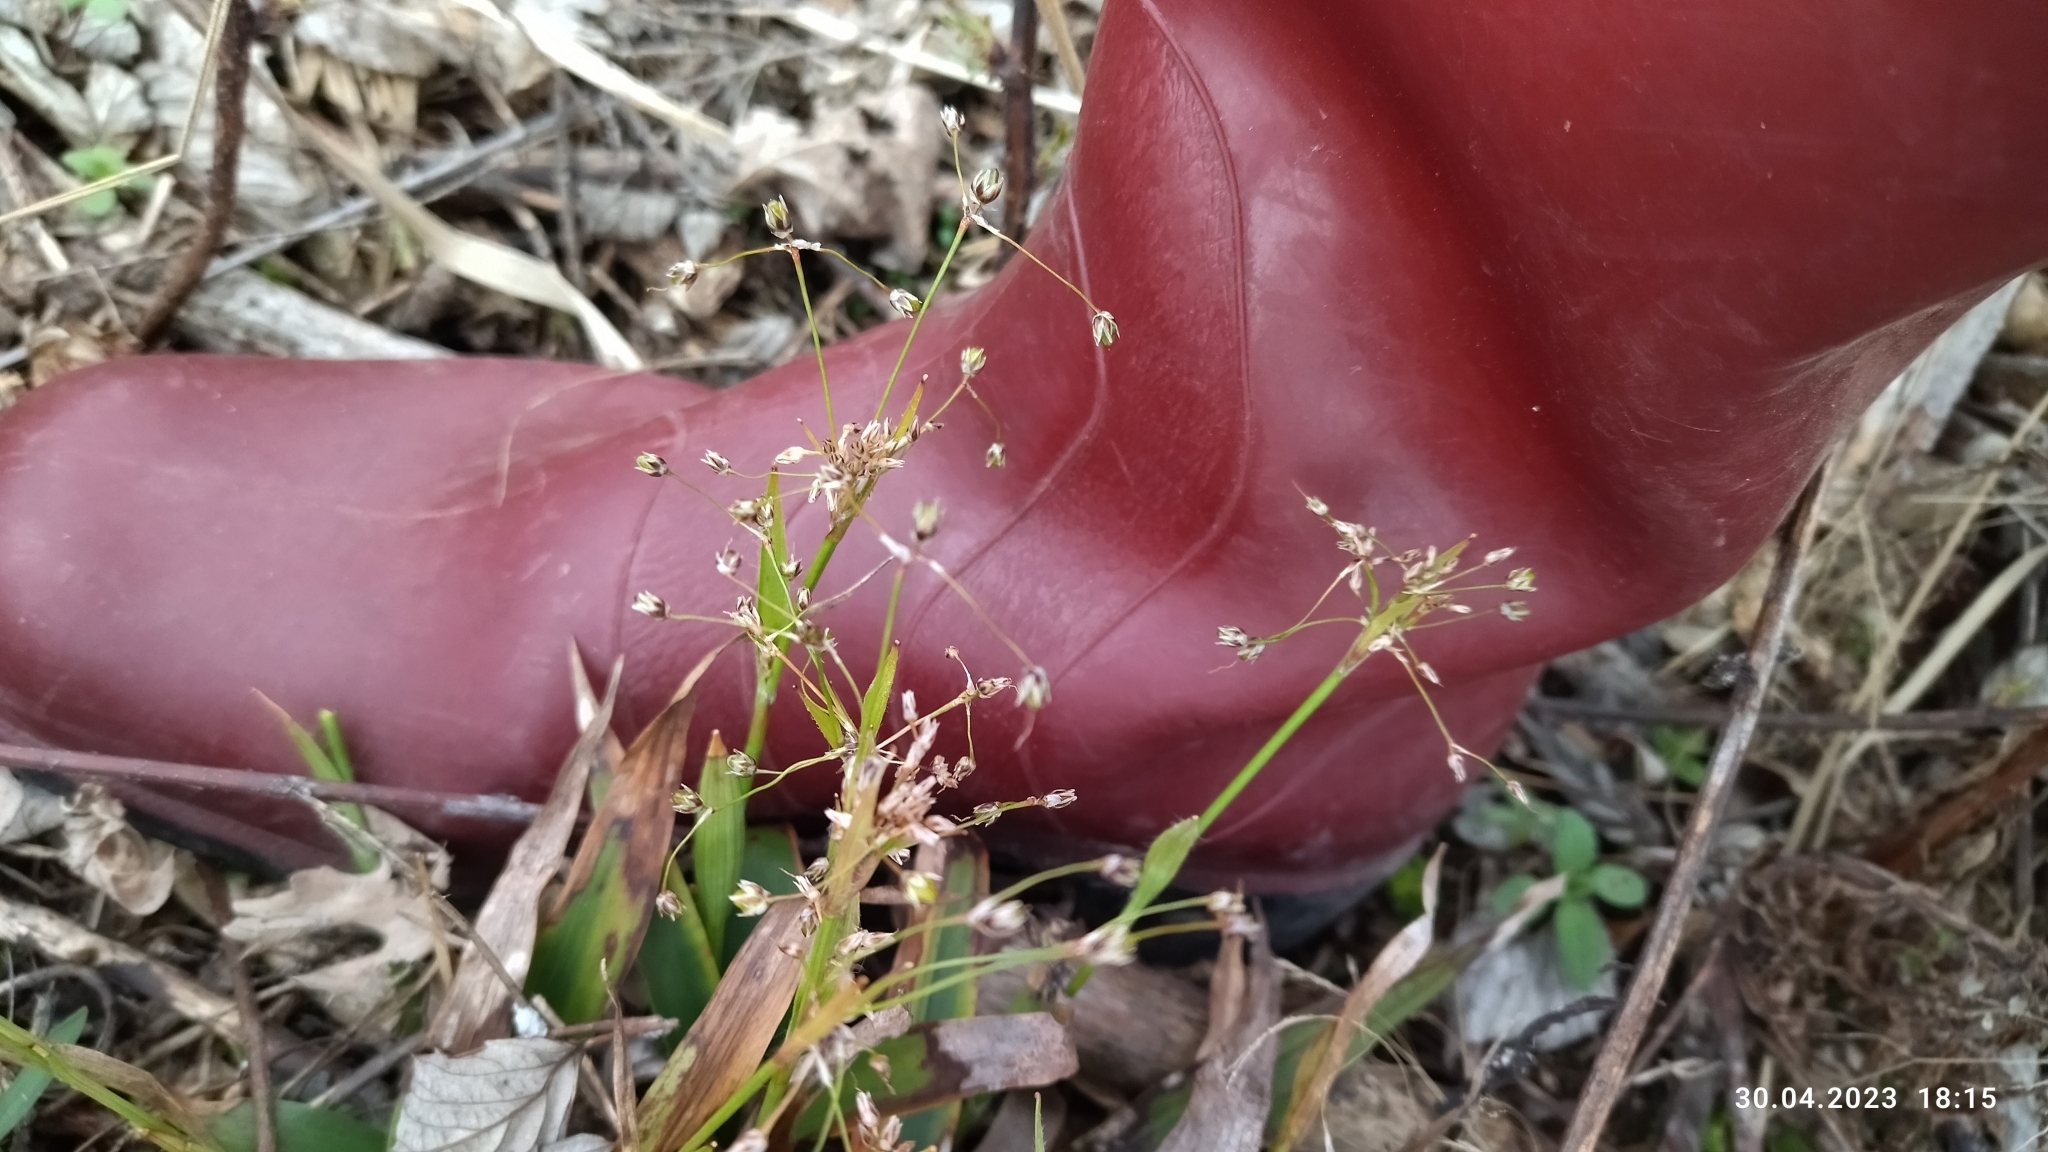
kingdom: Plantae
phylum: Tracheophyta
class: Liliopsida
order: Poales
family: Juncaceae
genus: Luzula
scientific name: Luzula pilosa
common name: Hairy wood-rush
